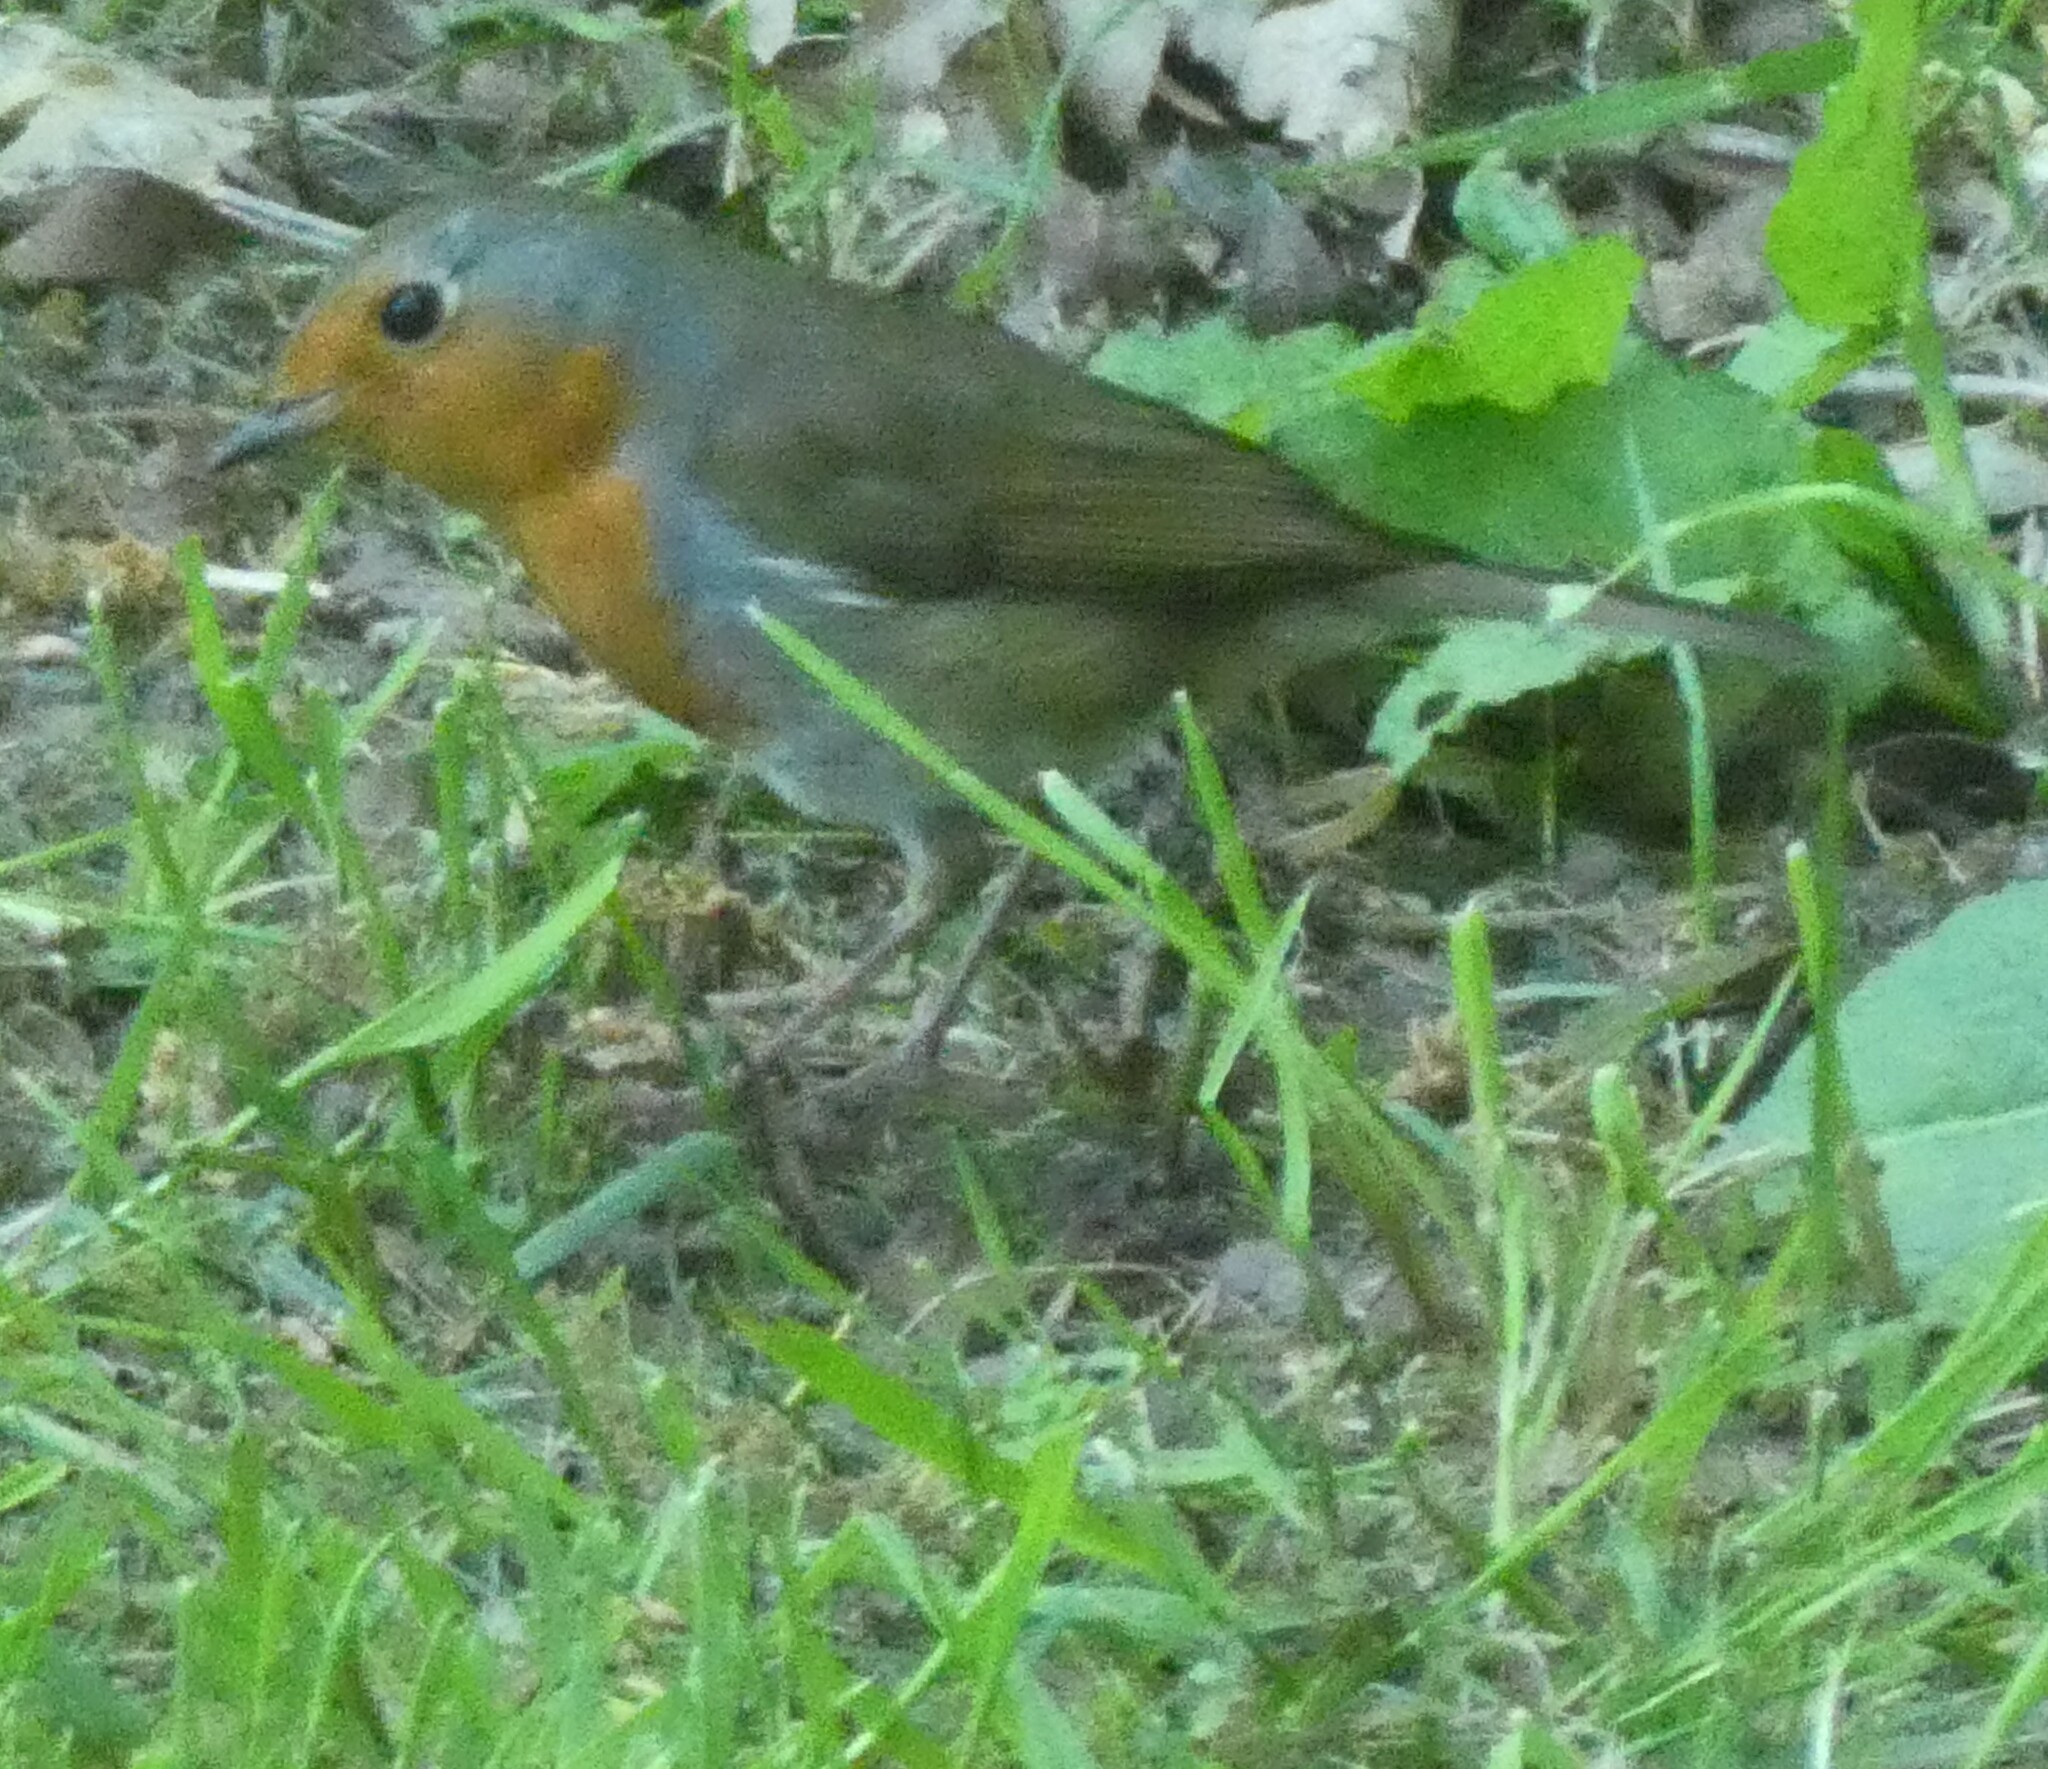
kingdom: Animalia
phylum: Chordata
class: Aves
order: Passeriformes
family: Muscicapidae
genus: Erithacus
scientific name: Erithacus rubecula
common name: European robin
